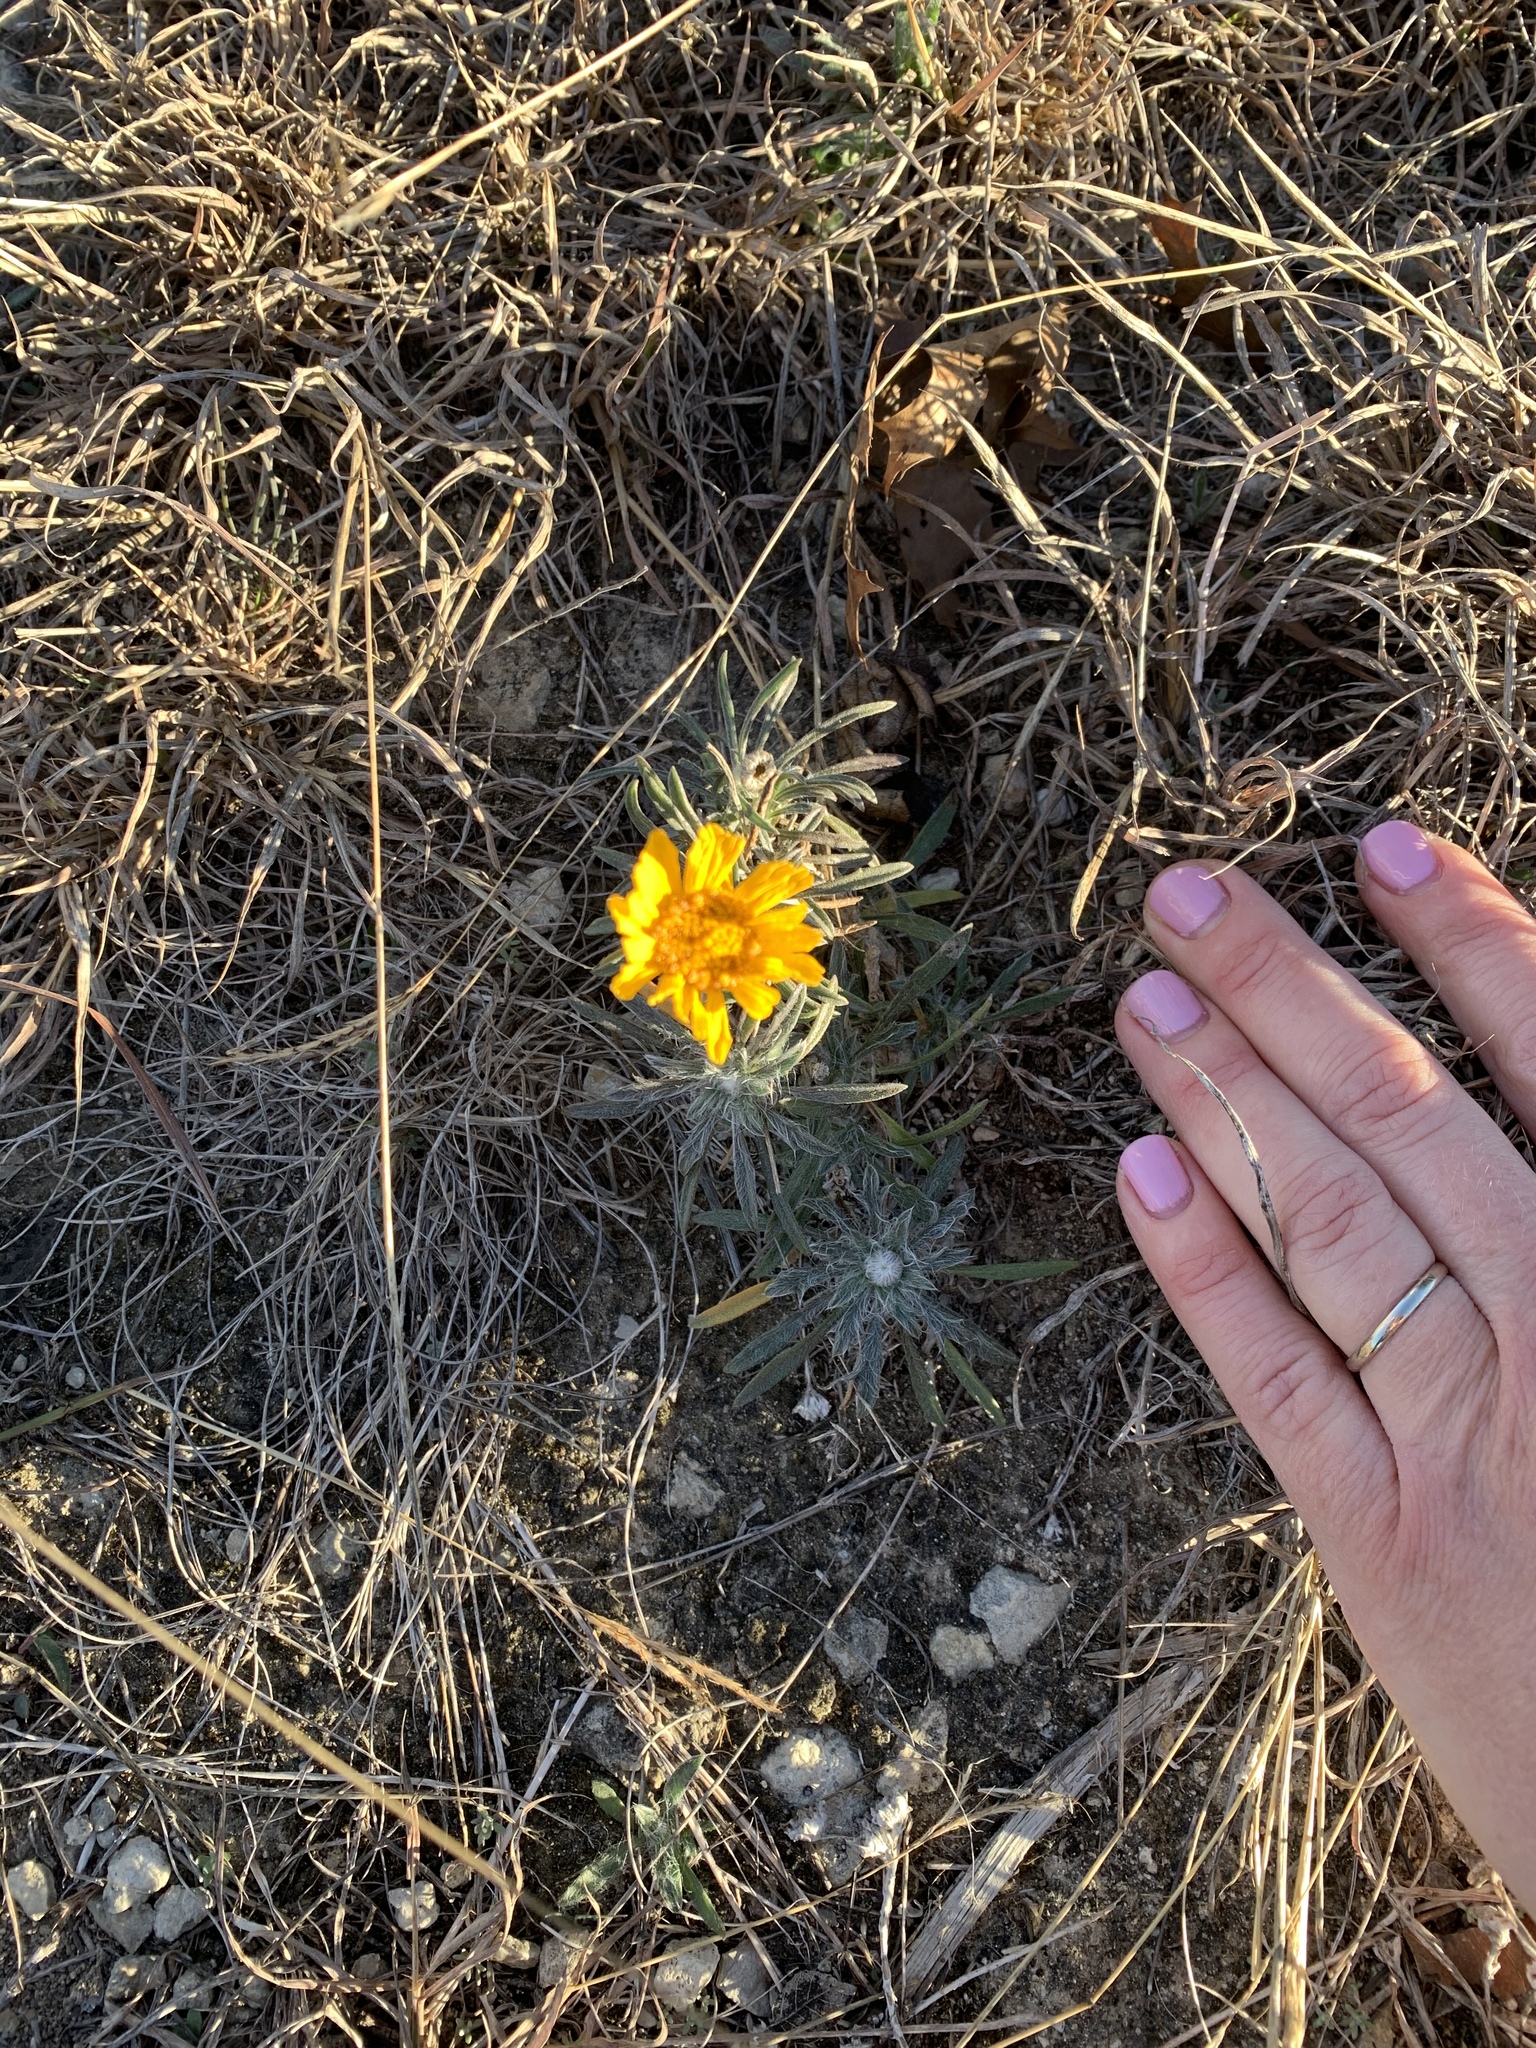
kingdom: Plantae
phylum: Tracheophyta
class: Magnoliopsida
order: Asterales
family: Asteraceae
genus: Tetraneuris
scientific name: Tetraneuris scaposa
